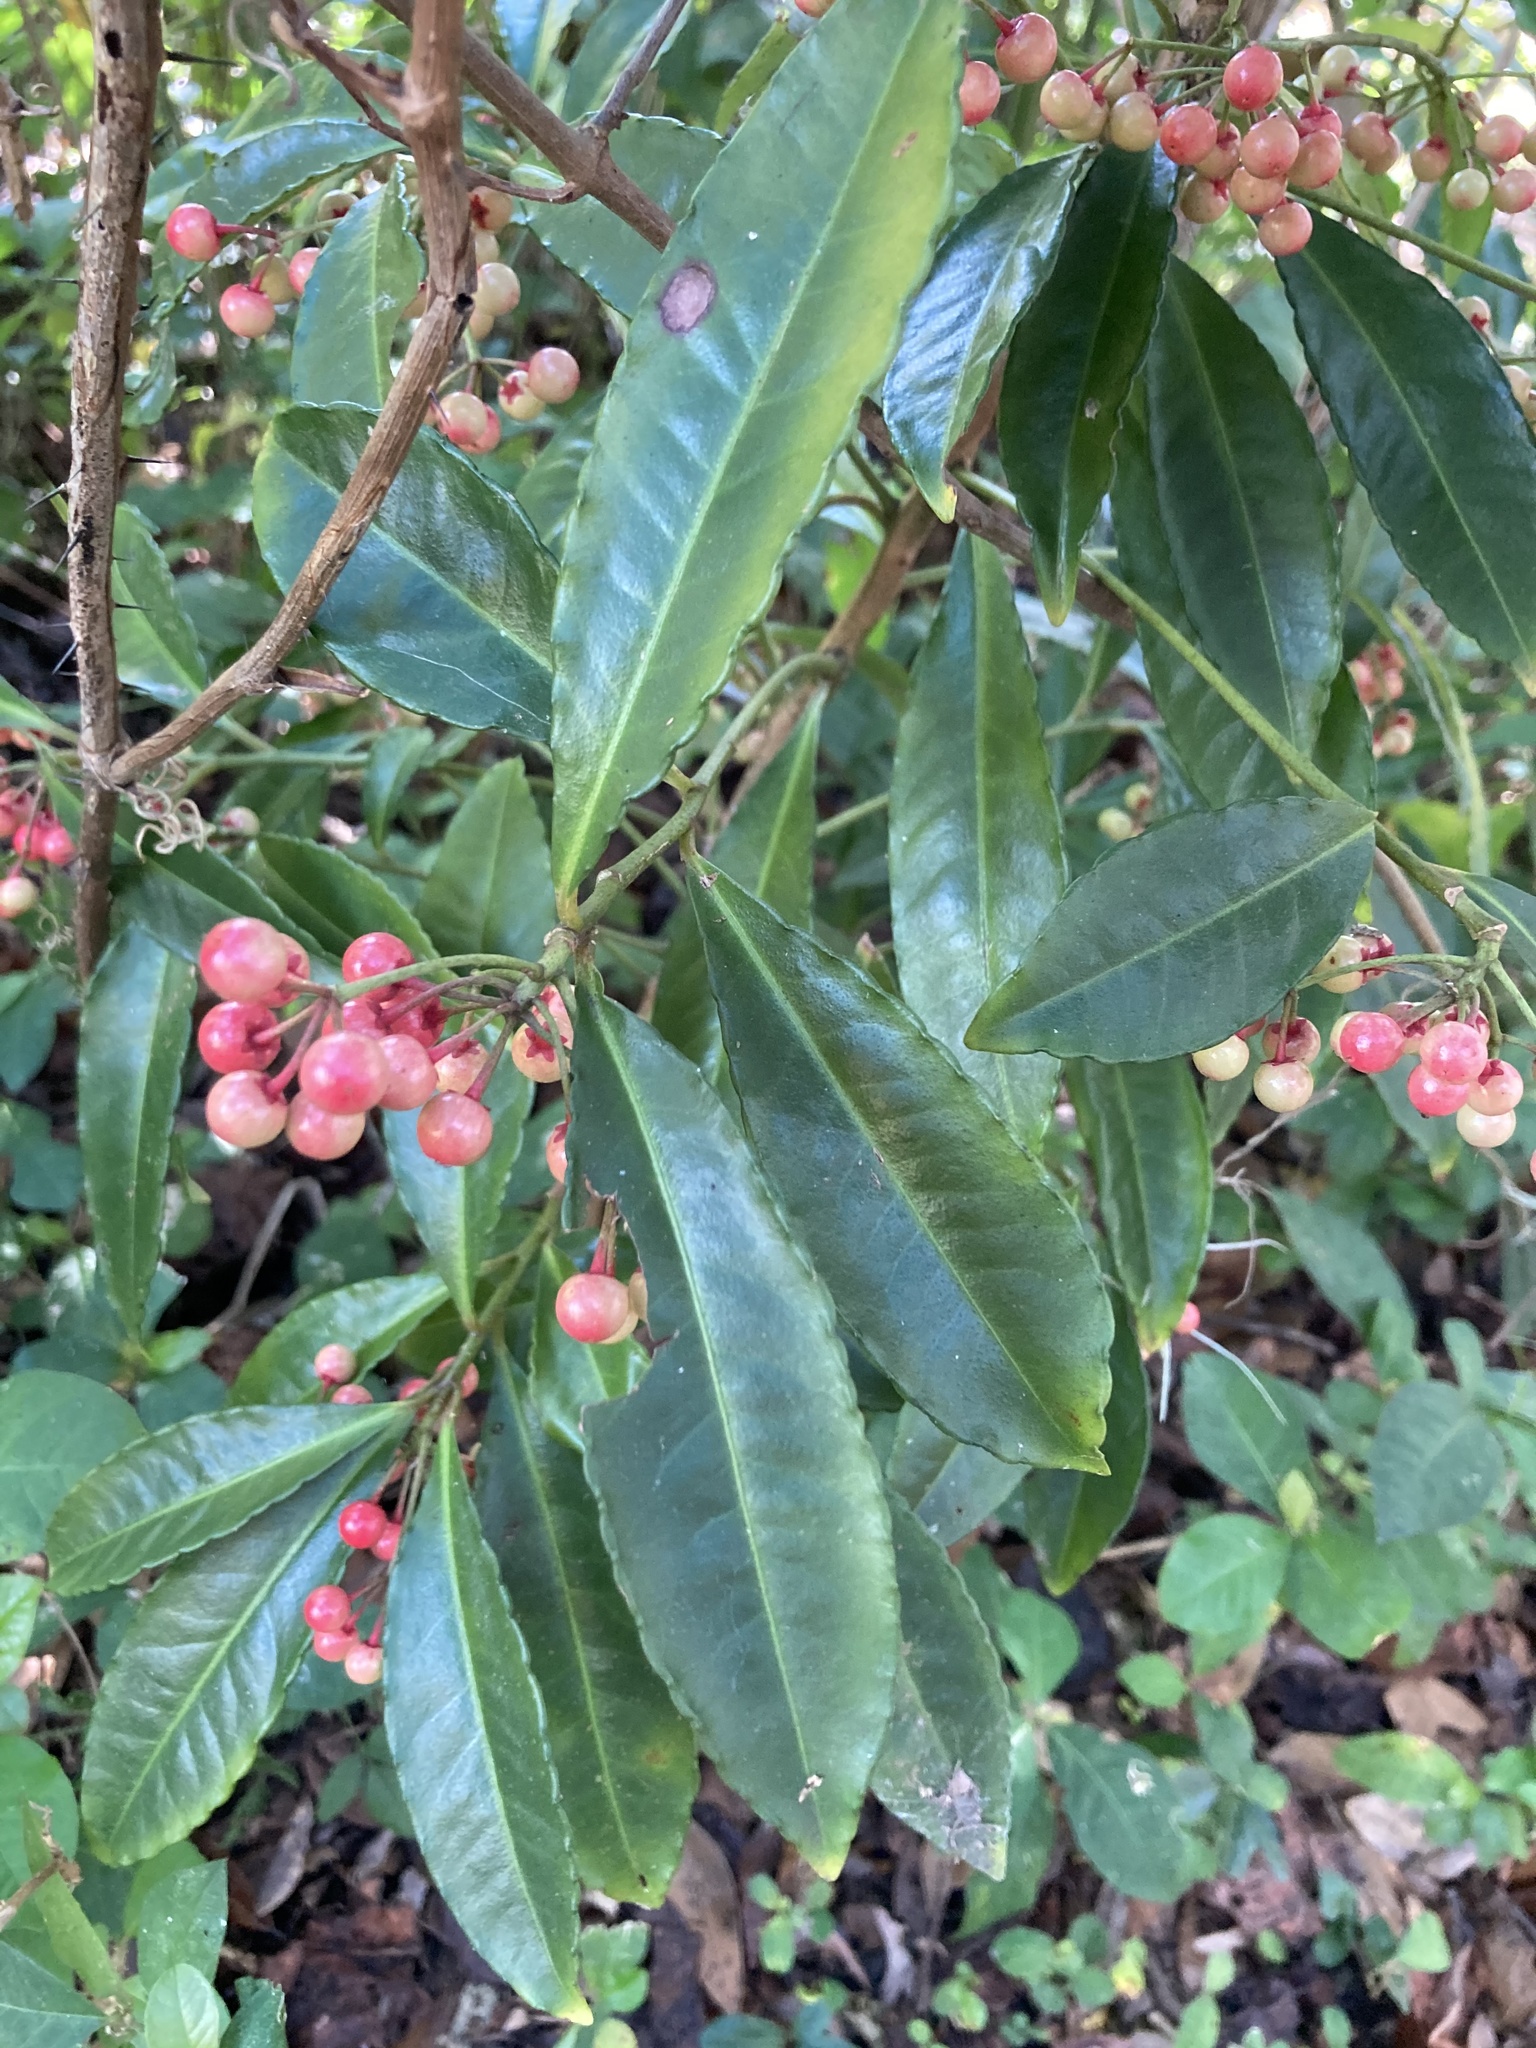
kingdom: Plantae
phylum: Tracheophyta
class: Magnoliopsida
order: Ericales
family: Primulaceae
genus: Ardisia
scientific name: Ardisia crenata
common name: Hen's eyes
